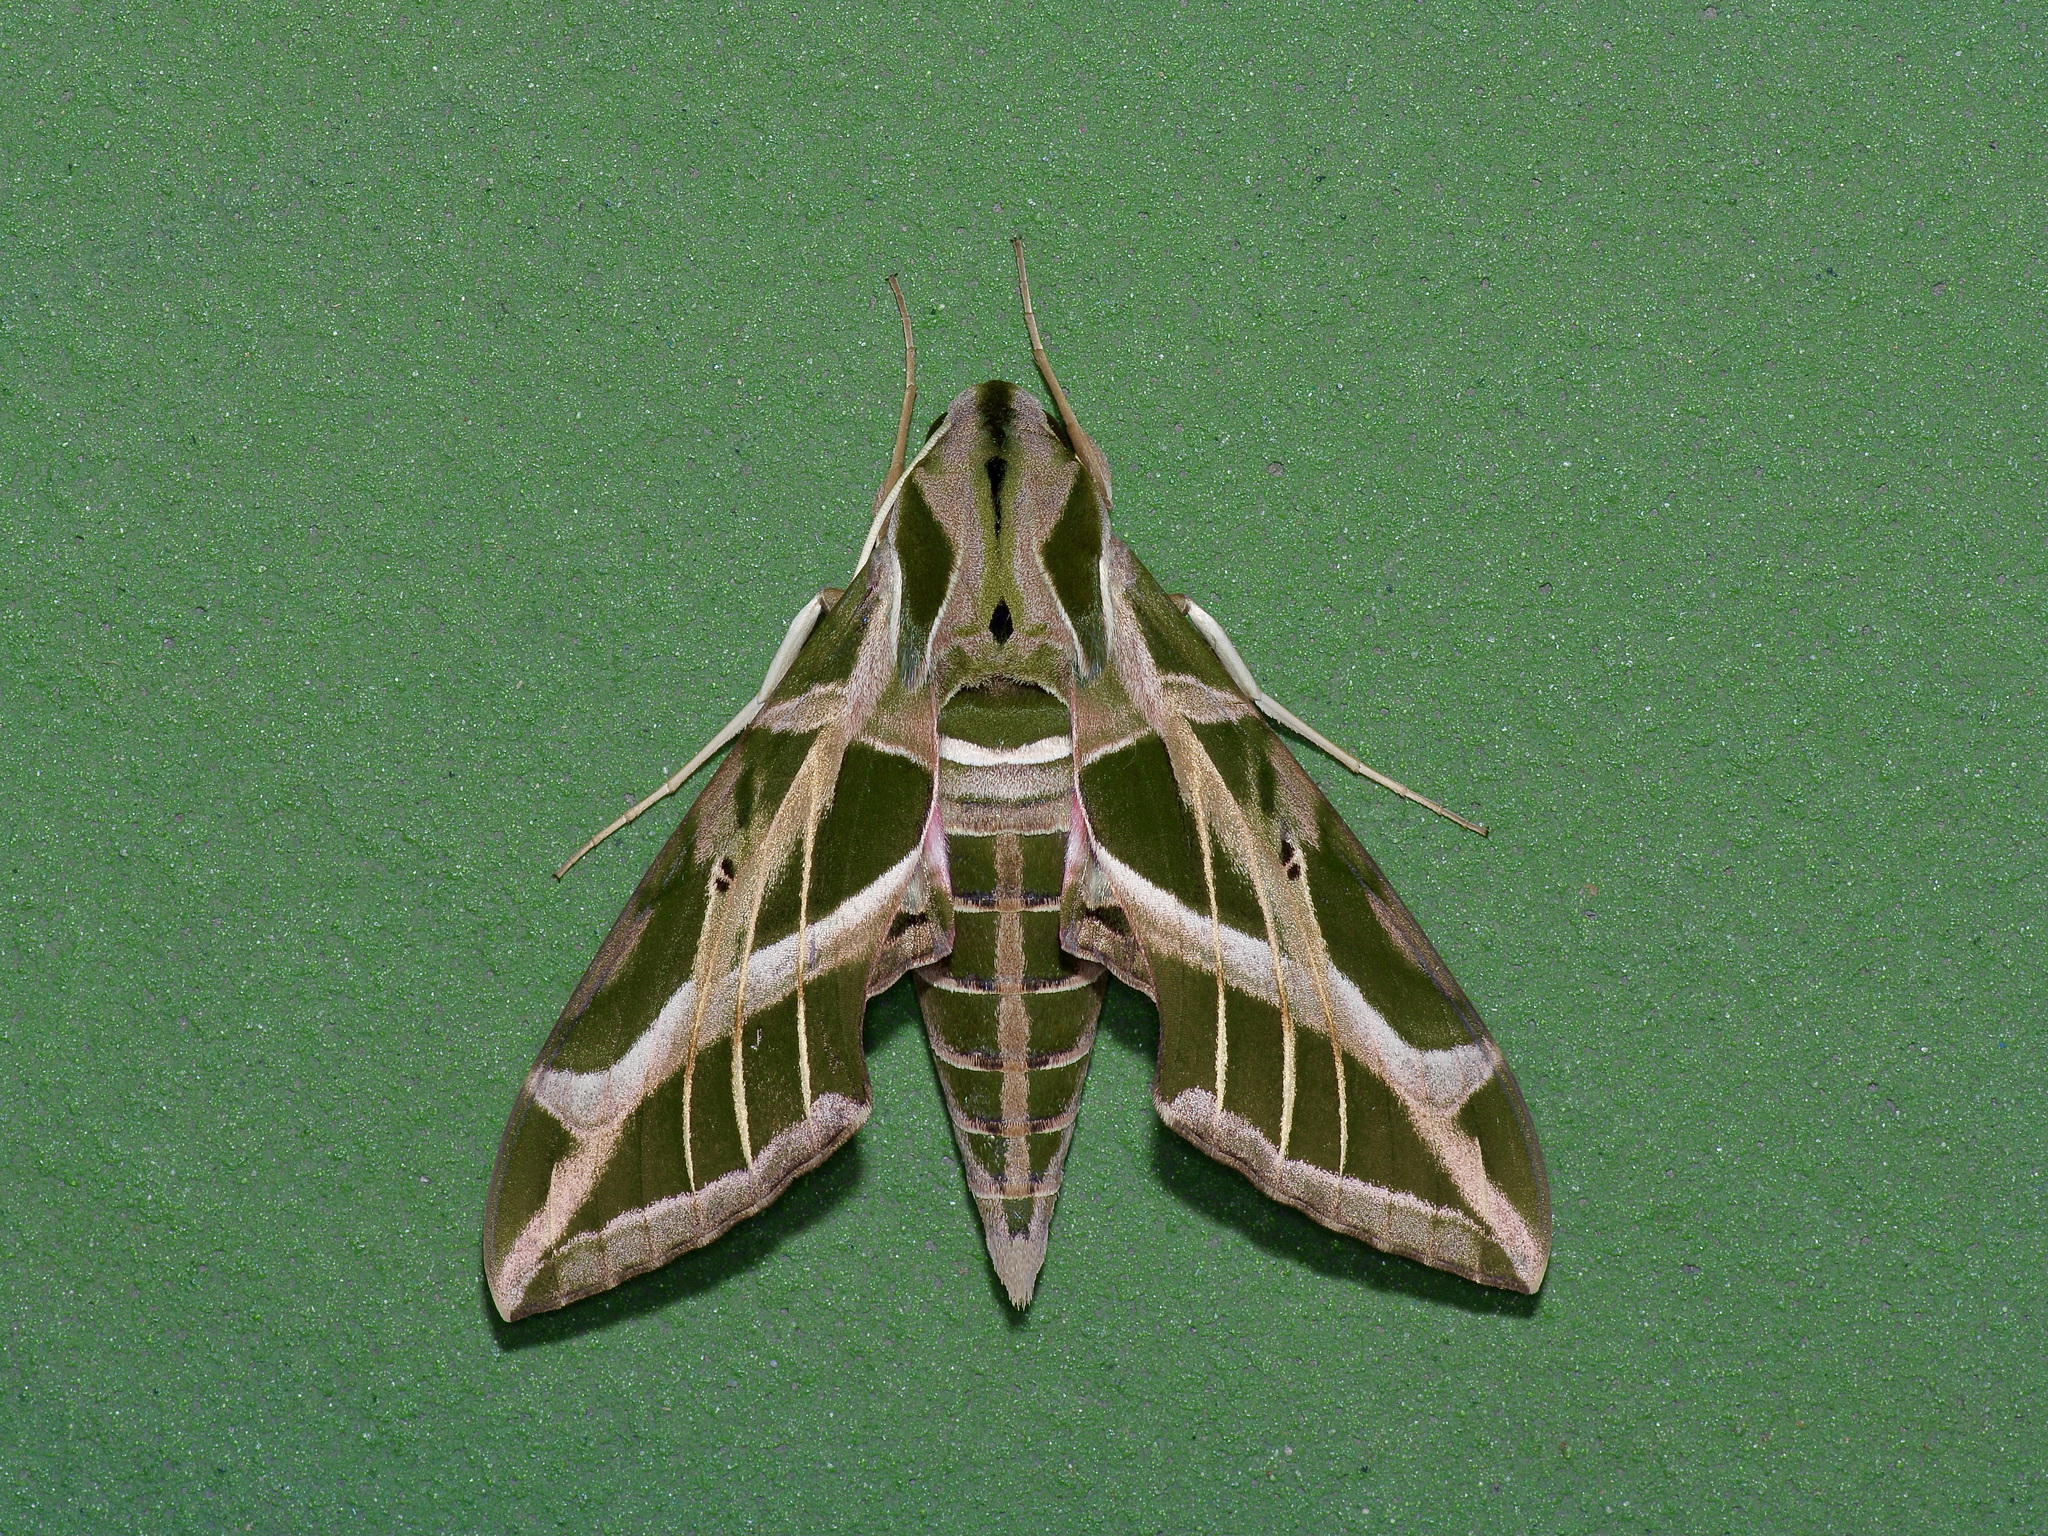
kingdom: Animalia
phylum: Arthropoda
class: Insecta
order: Lepidoptera
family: Sphingidae
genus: Eumorpha
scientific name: Eumorpha vitis
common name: Vine sphinx
